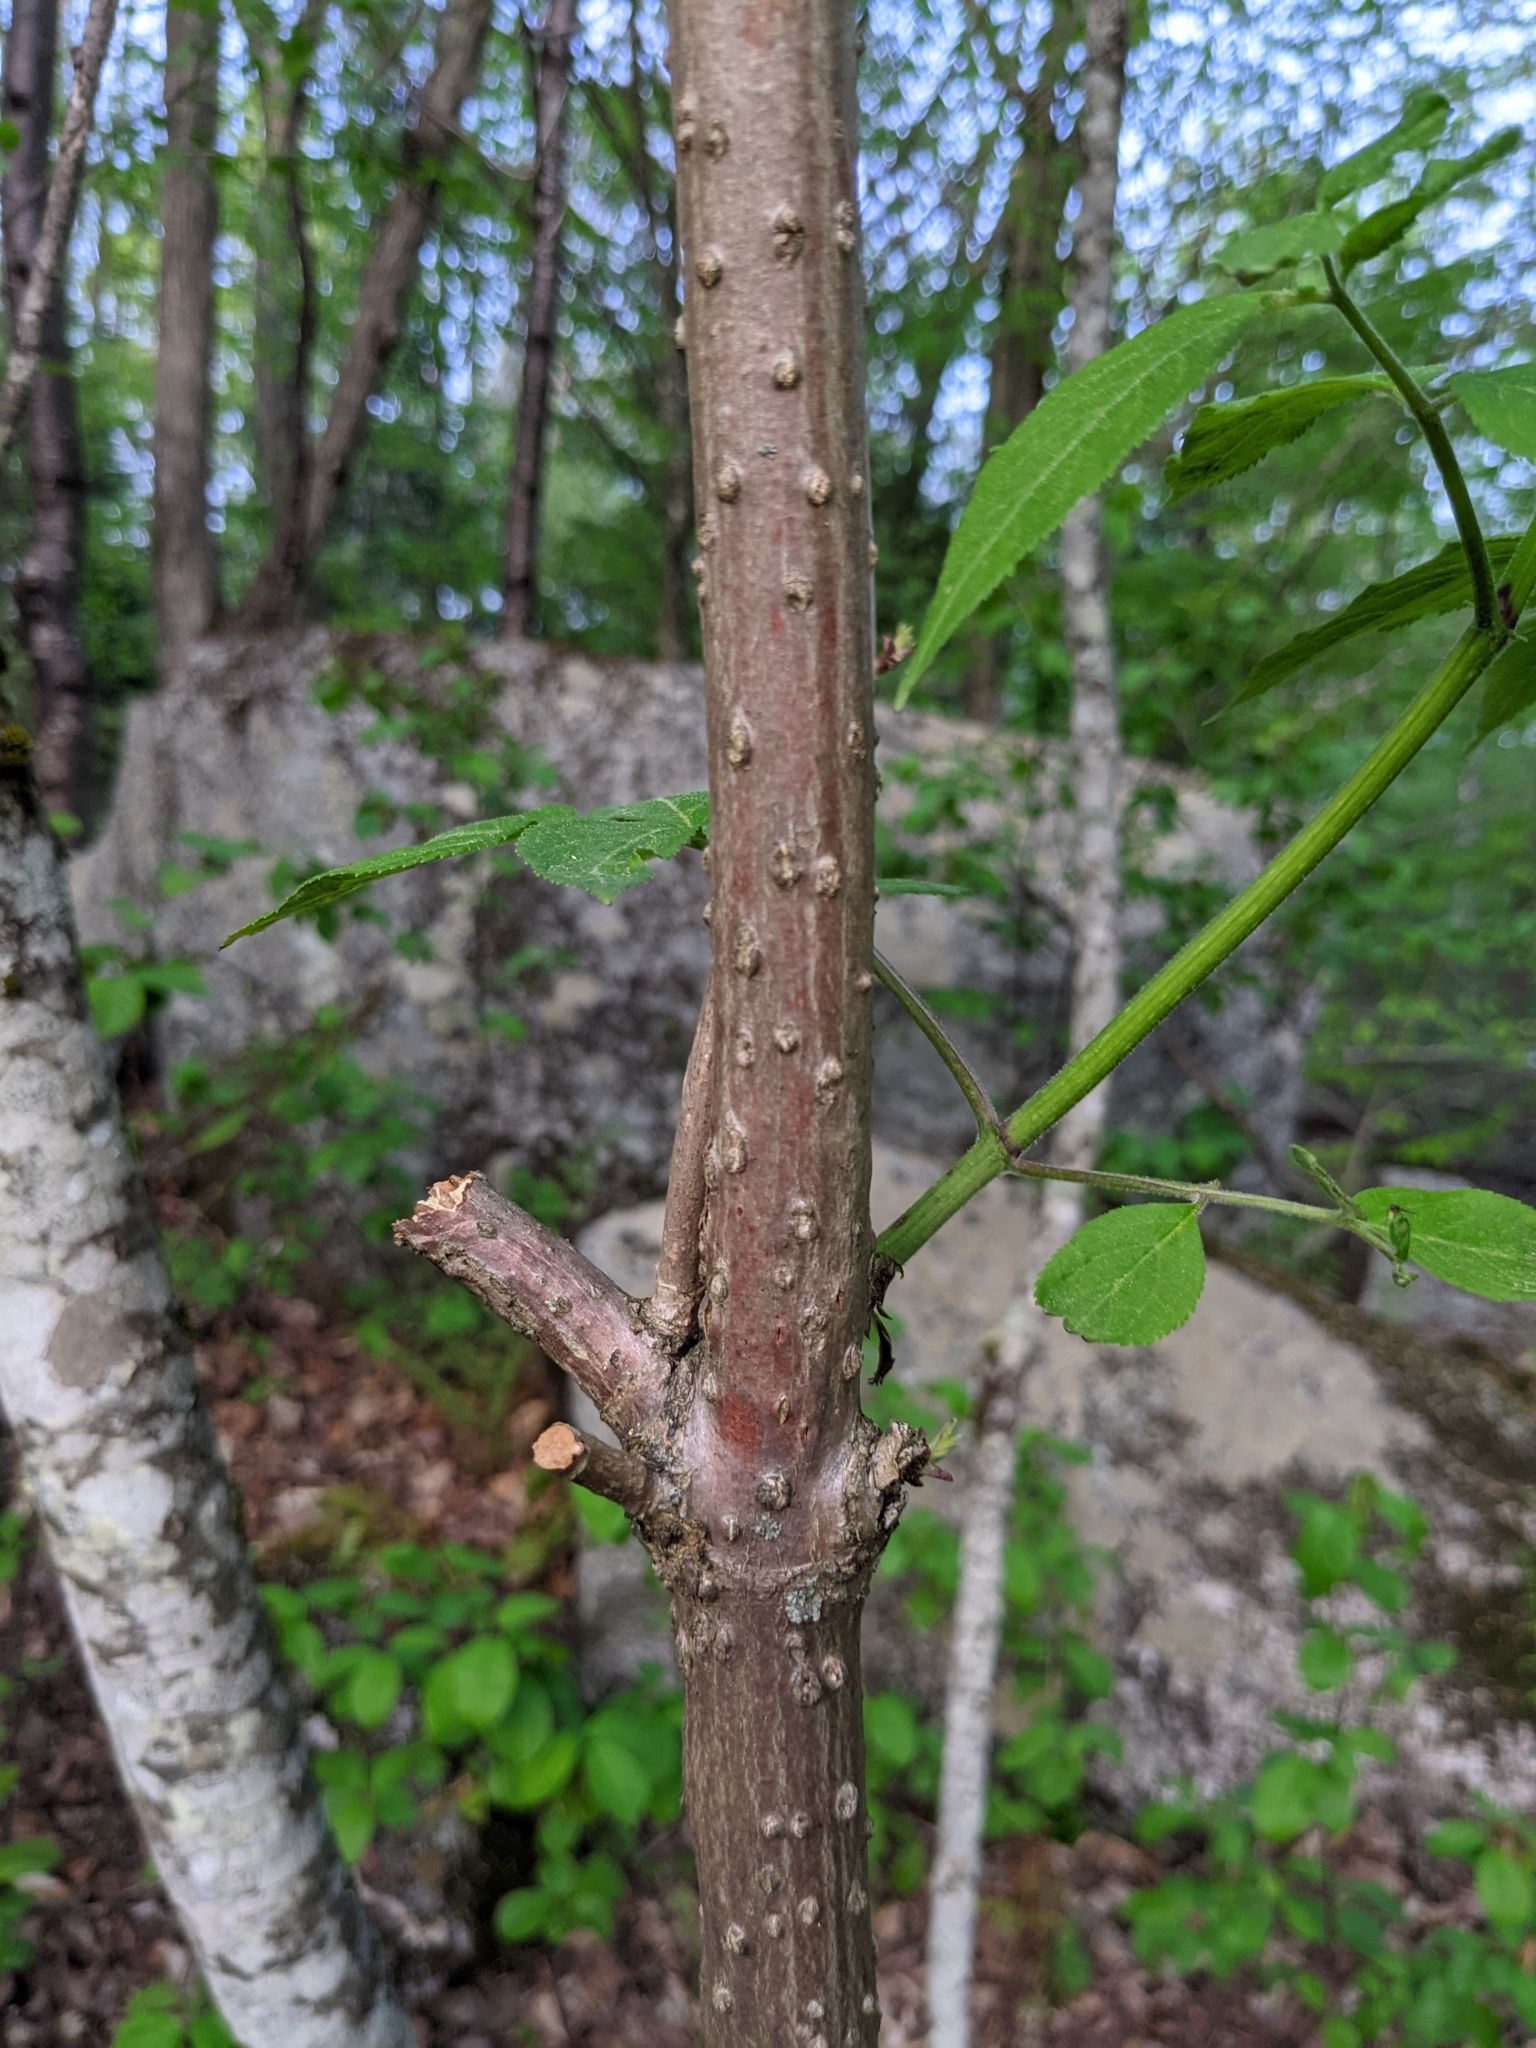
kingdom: Plantae
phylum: Tracheophyta
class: Magnoliopsida
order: Dipsacales
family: Viburnaceae
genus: Sambucus
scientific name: Sambucus racemosa
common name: Red-berried elder
